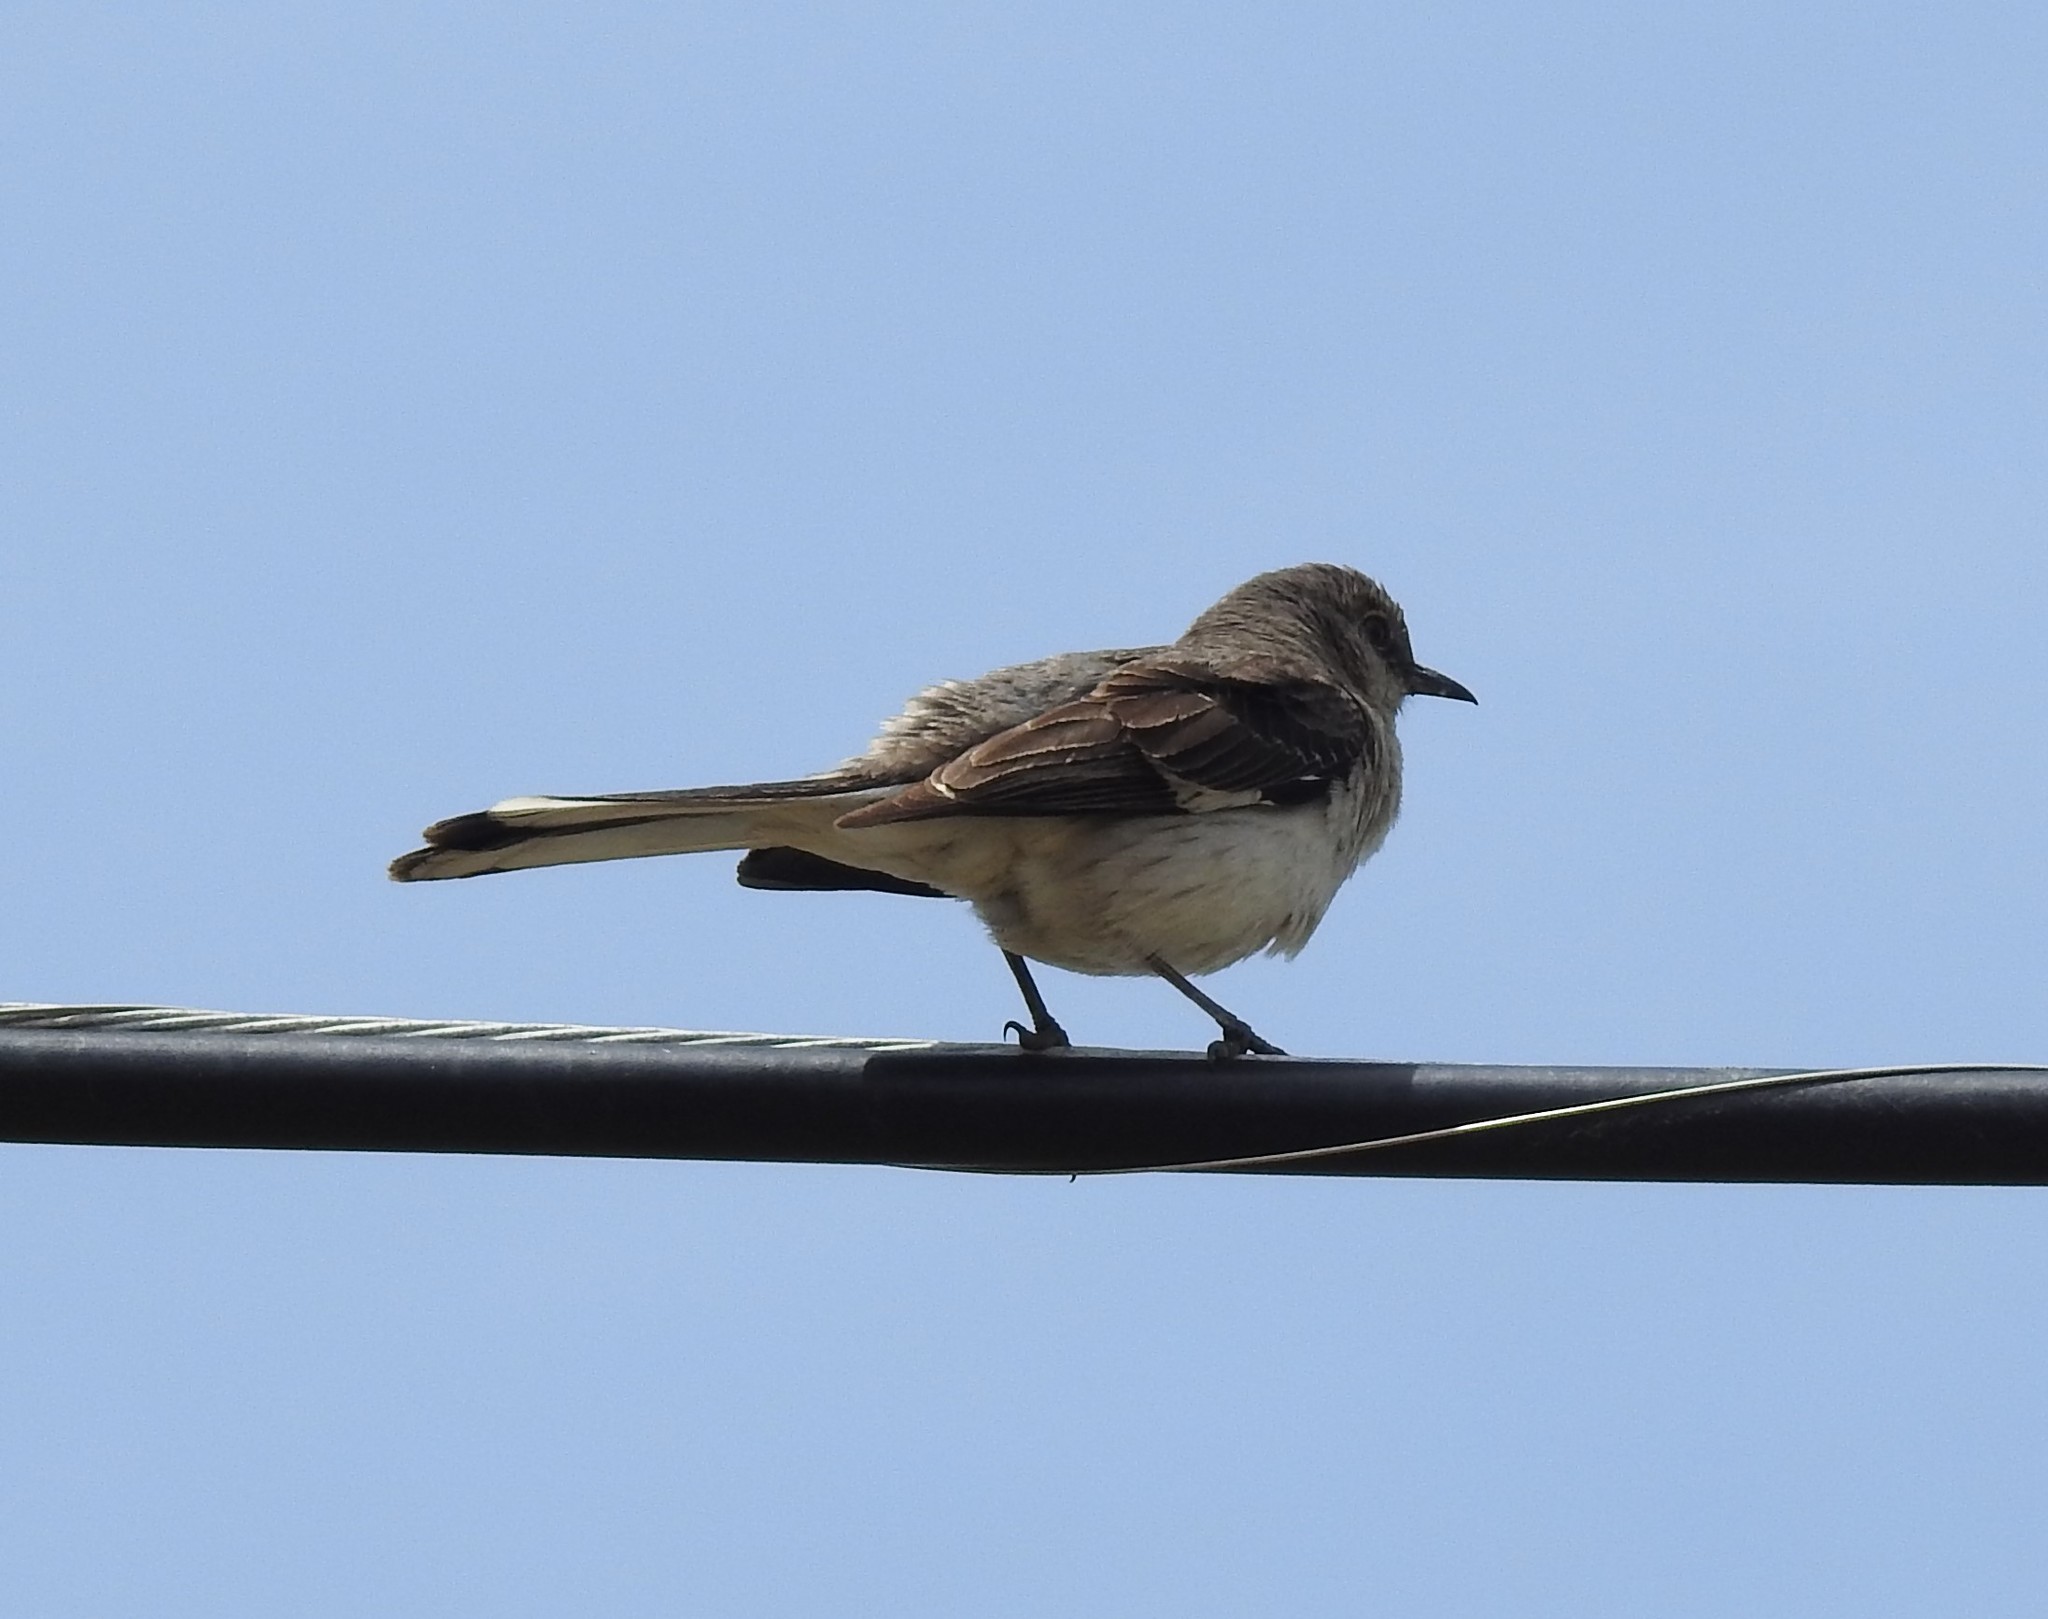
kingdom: Animalia
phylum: Chordata
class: Aves
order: Passeriformes
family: Mimidae
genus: Mimus
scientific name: Mimus polyglottos
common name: Northern mockingbird
